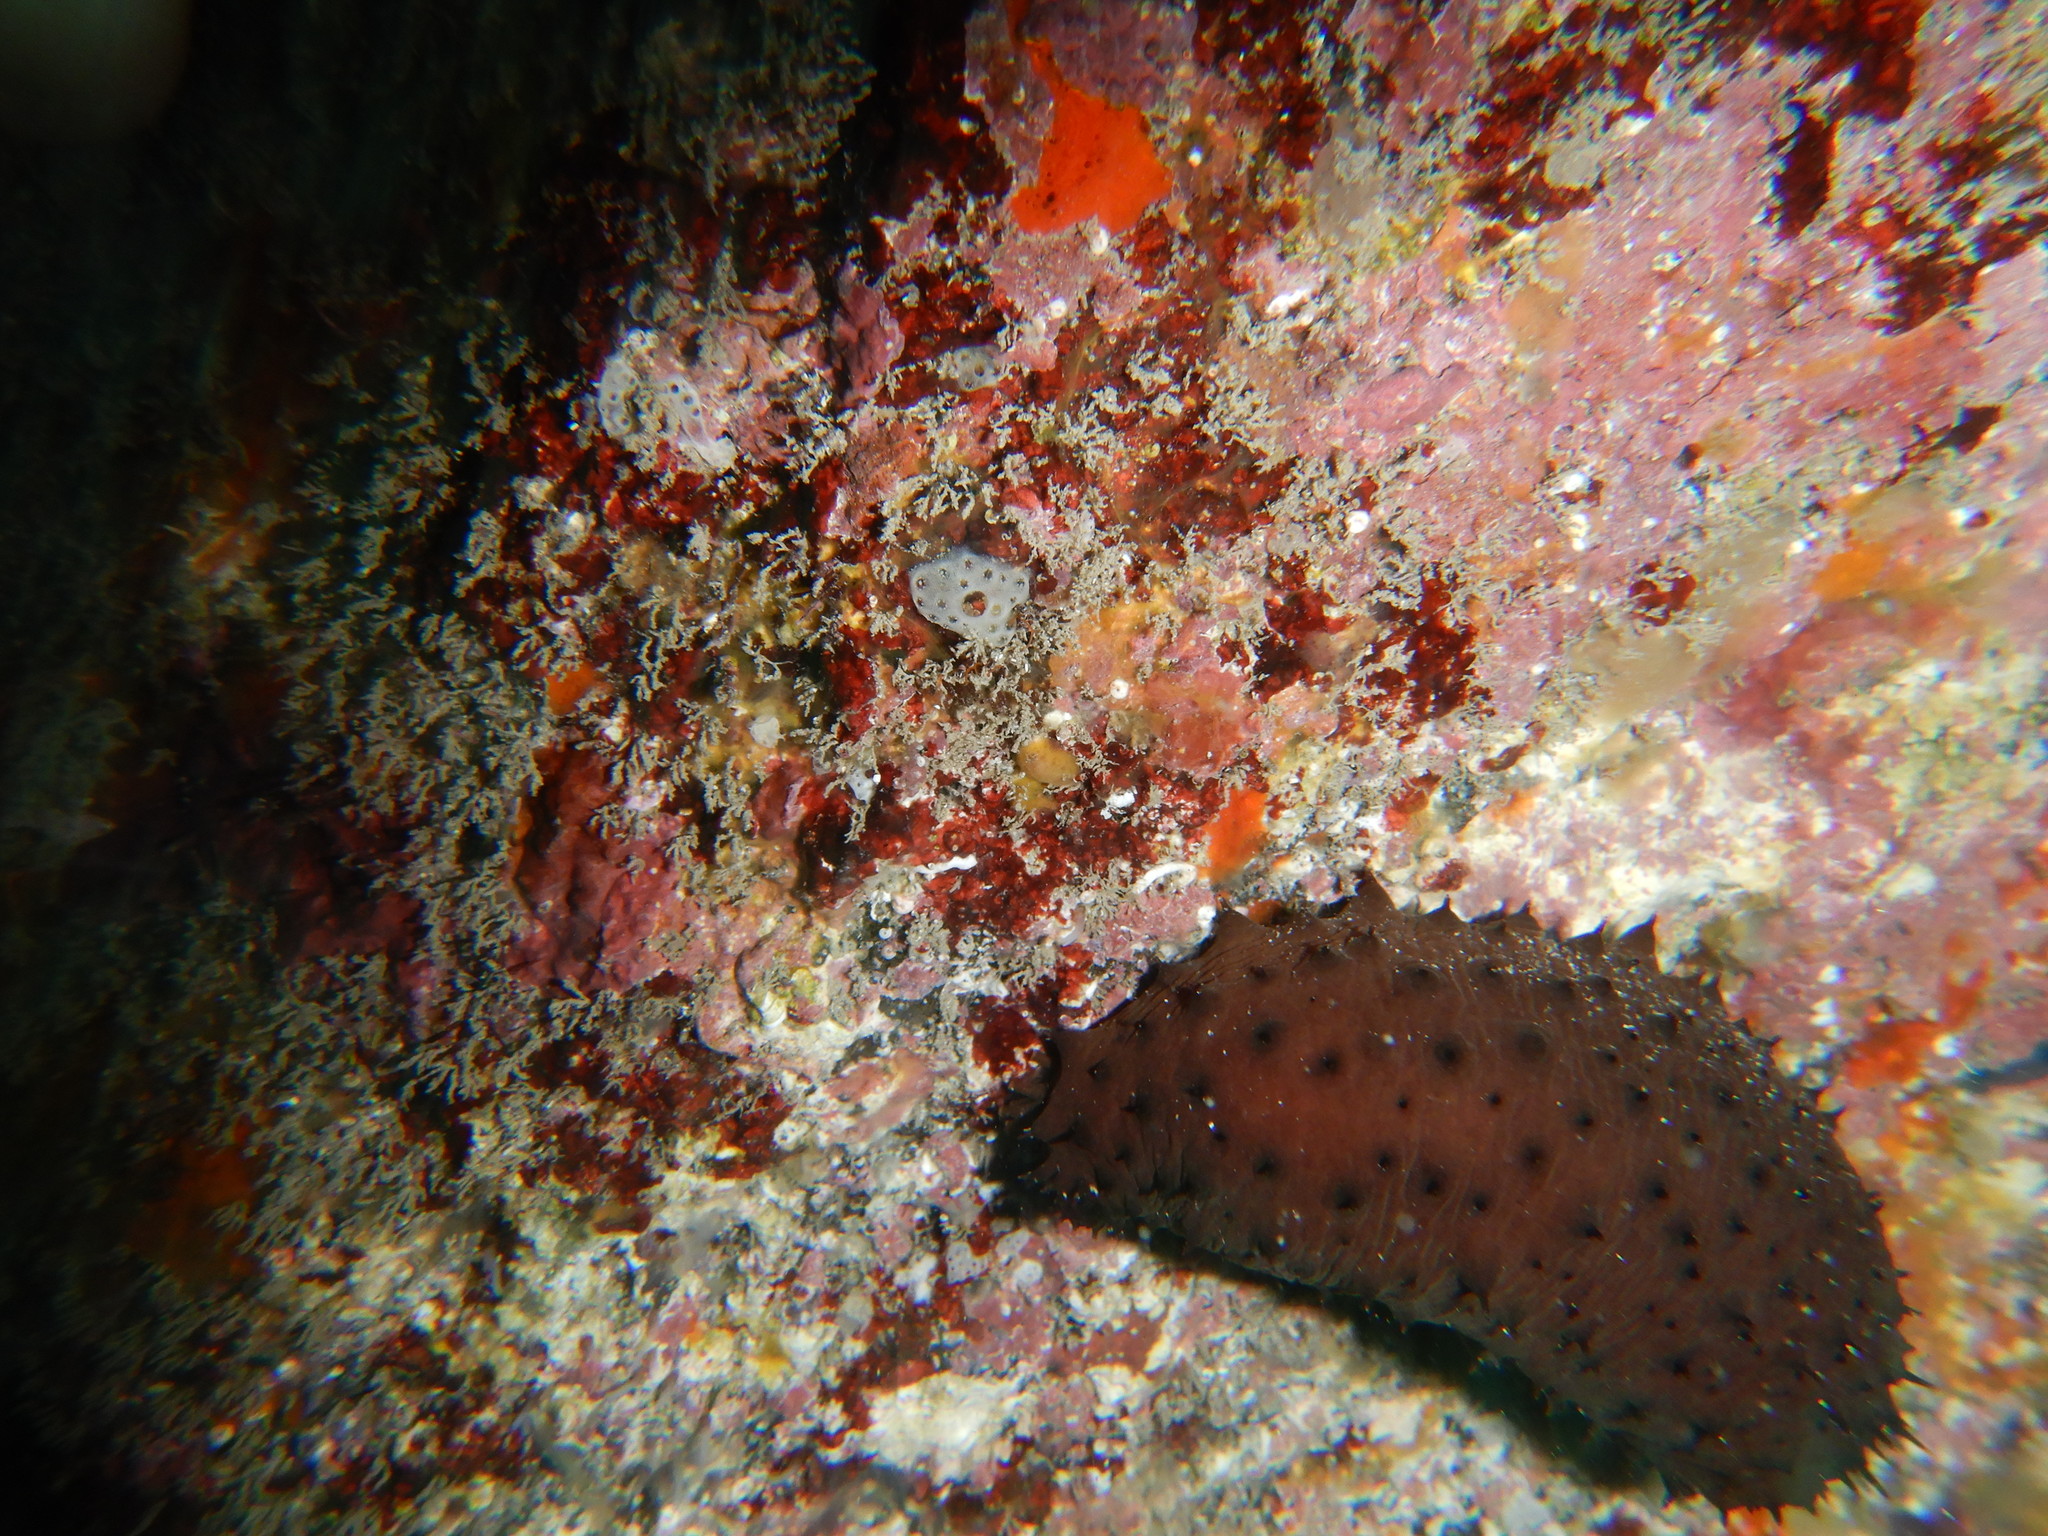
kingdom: Animalia
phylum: Echinodermata
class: Holothuroidea
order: Holothuriida
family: Holothuriidae
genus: Holothuria
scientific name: Holothuria sanctori
